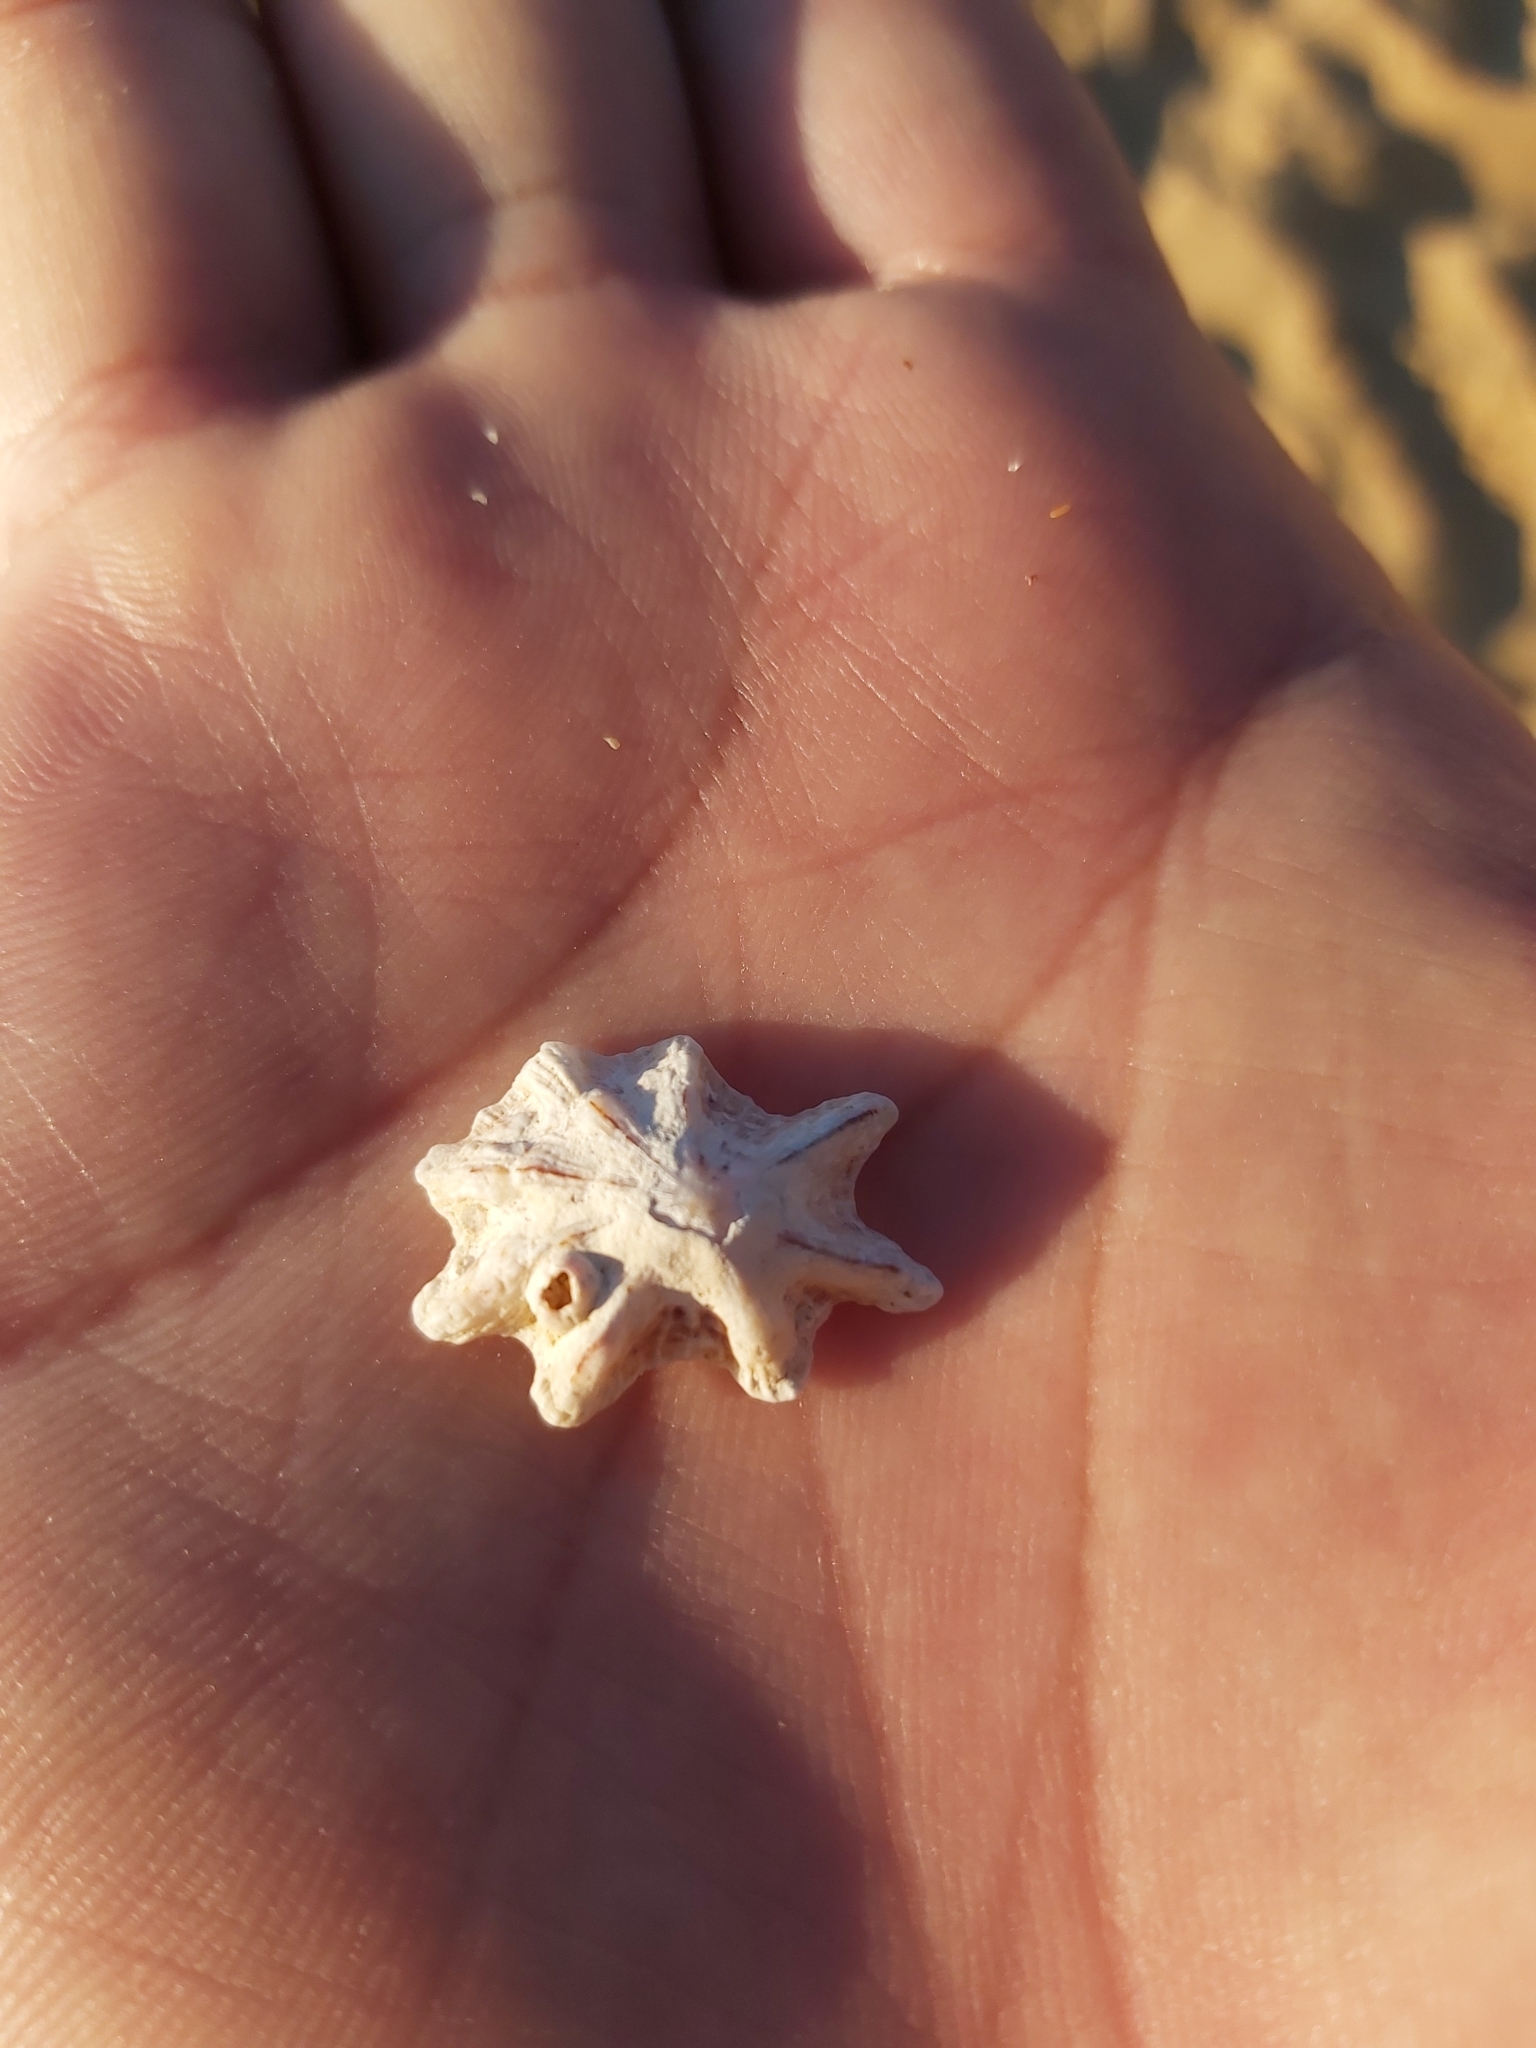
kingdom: Animalia
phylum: Mollusca
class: Gastropoda
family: Patellidae
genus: Scutellastra
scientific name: Scutellastra chapmani
